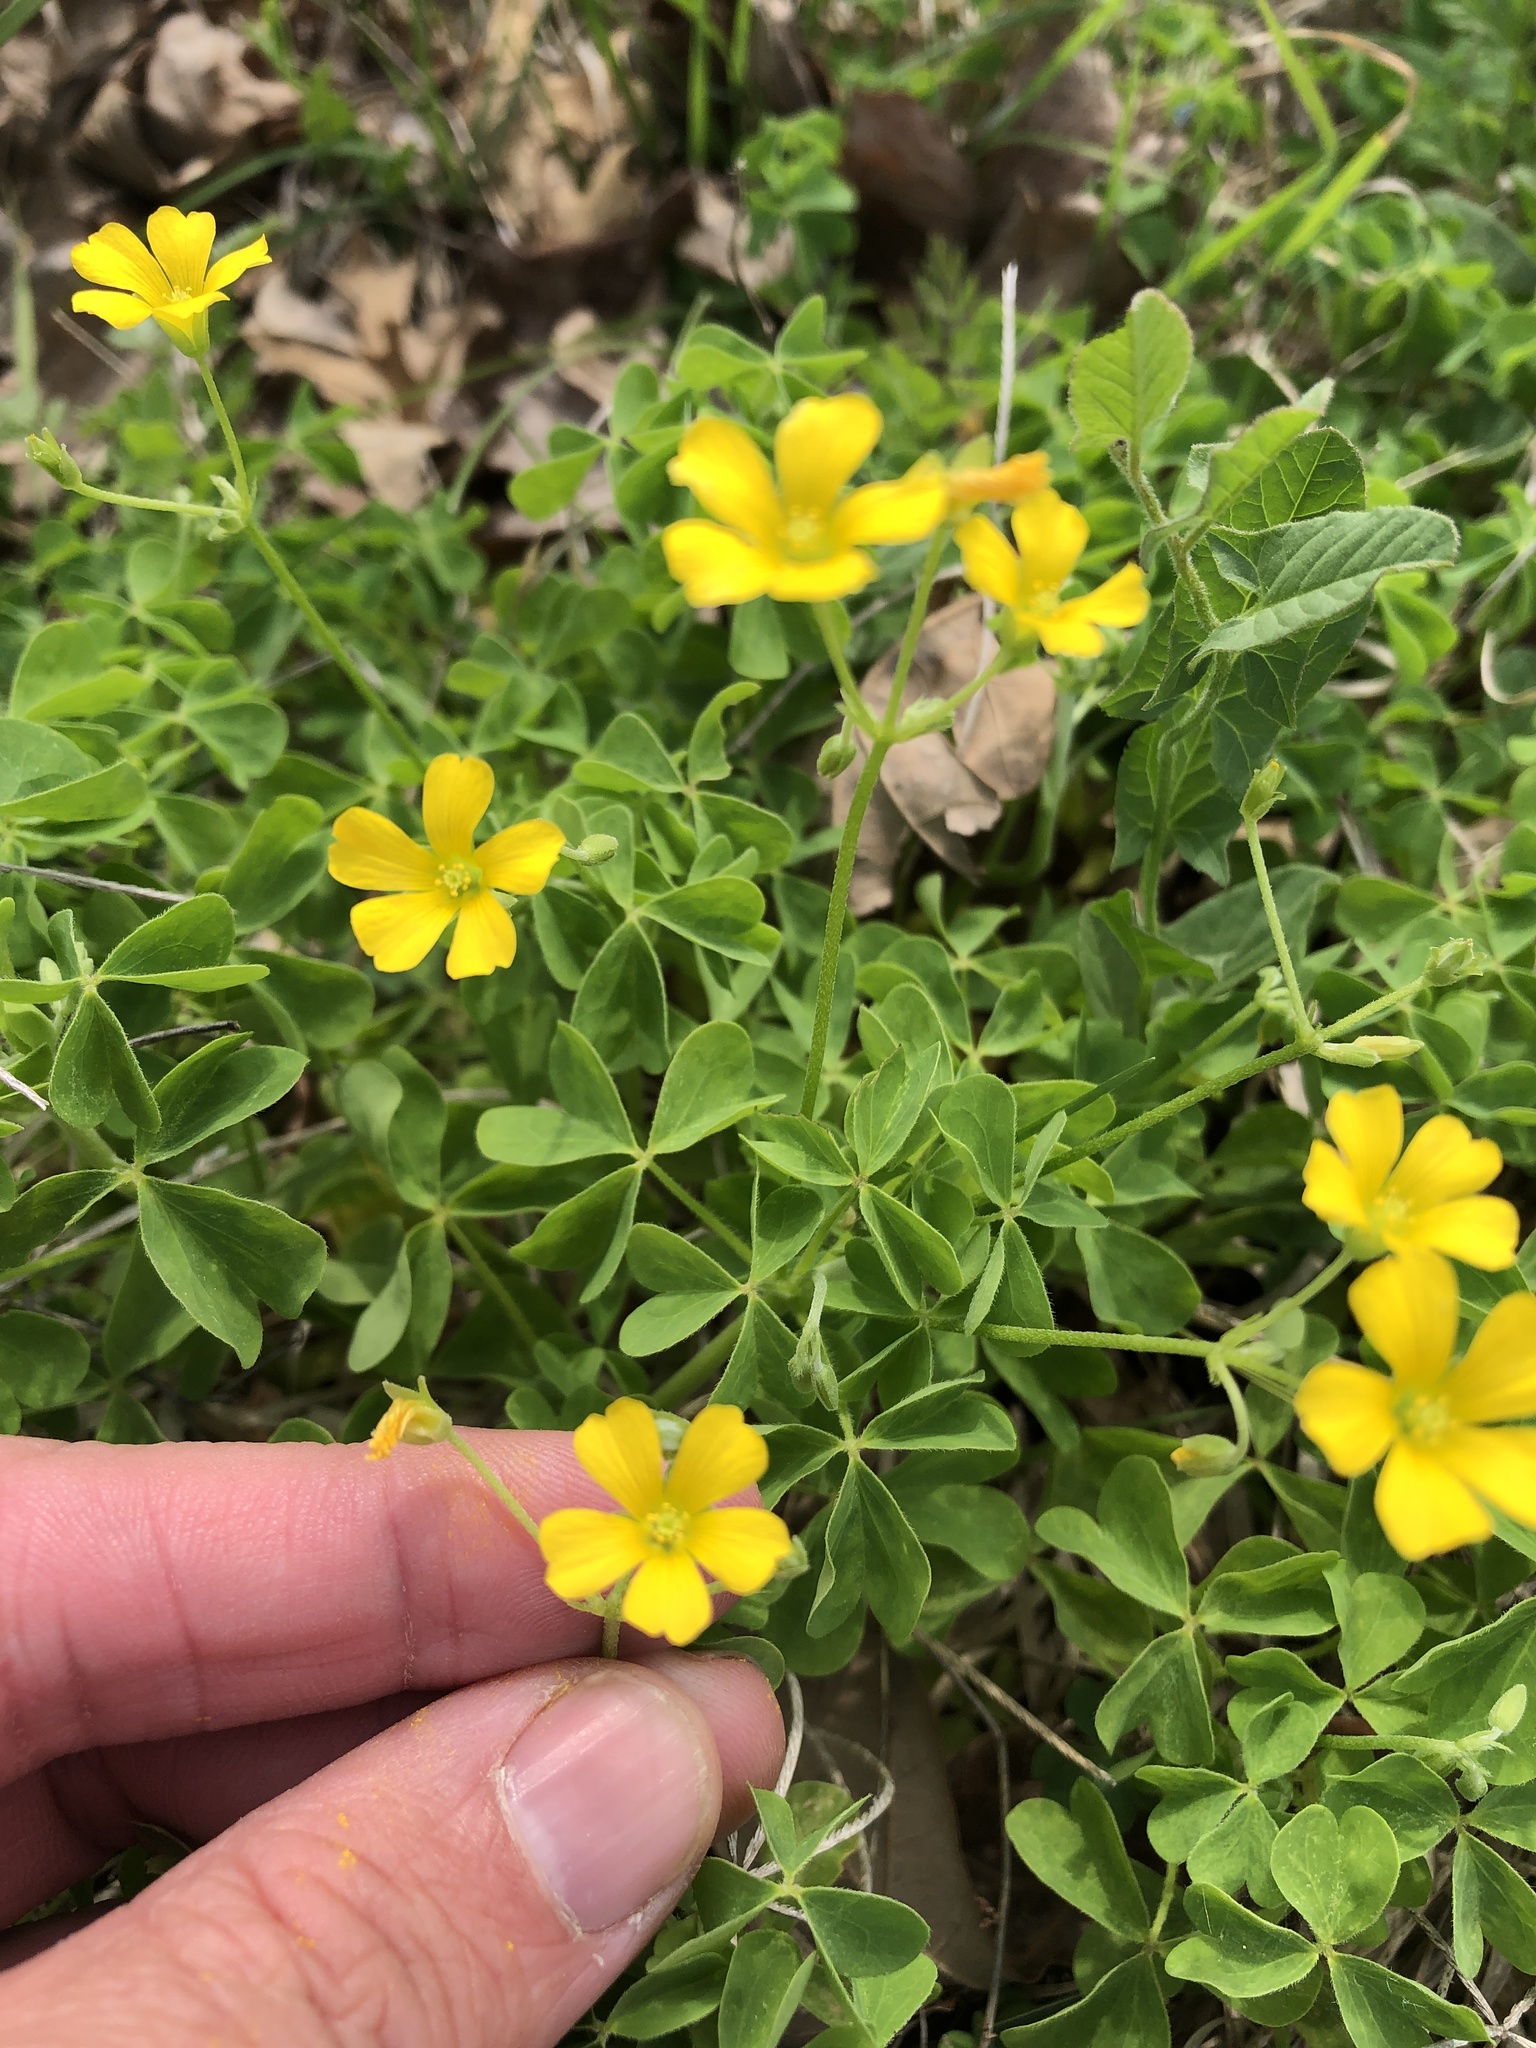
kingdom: Plantae
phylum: Tracheophyta
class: Magnoliopsida
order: Oxalidales
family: Oxalidaceae
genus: Oxalis
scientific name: Oxalis dillenii
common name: Sussex yellow-sorrel
